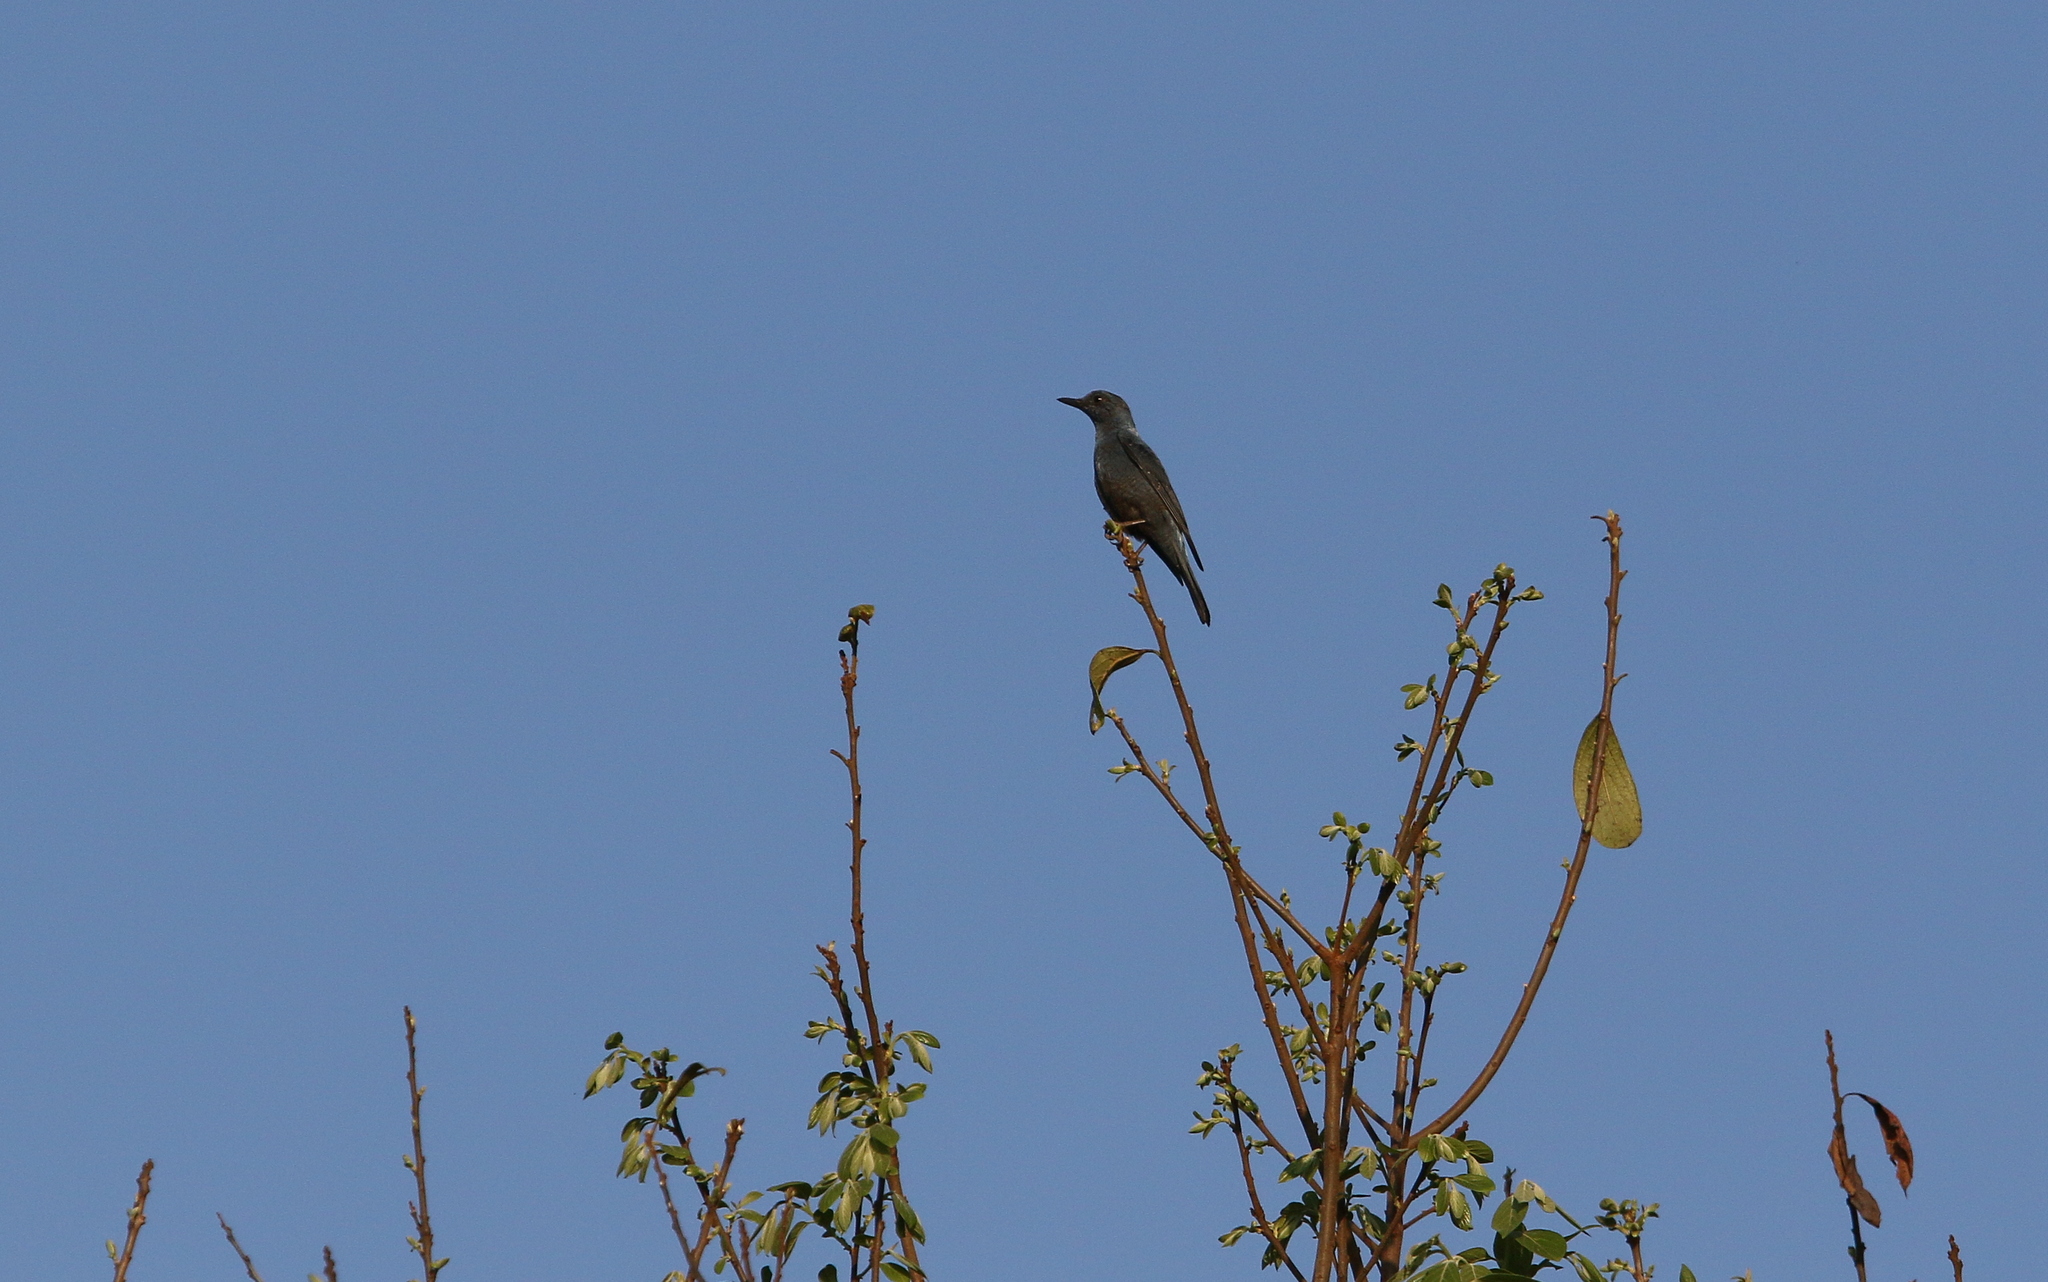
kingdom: Animalia
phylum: Chordata
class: Aves
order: Passeriformes
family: Muscicapidae
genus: Monticola
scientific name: Monticola solitarius
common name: Blue rock thrush
